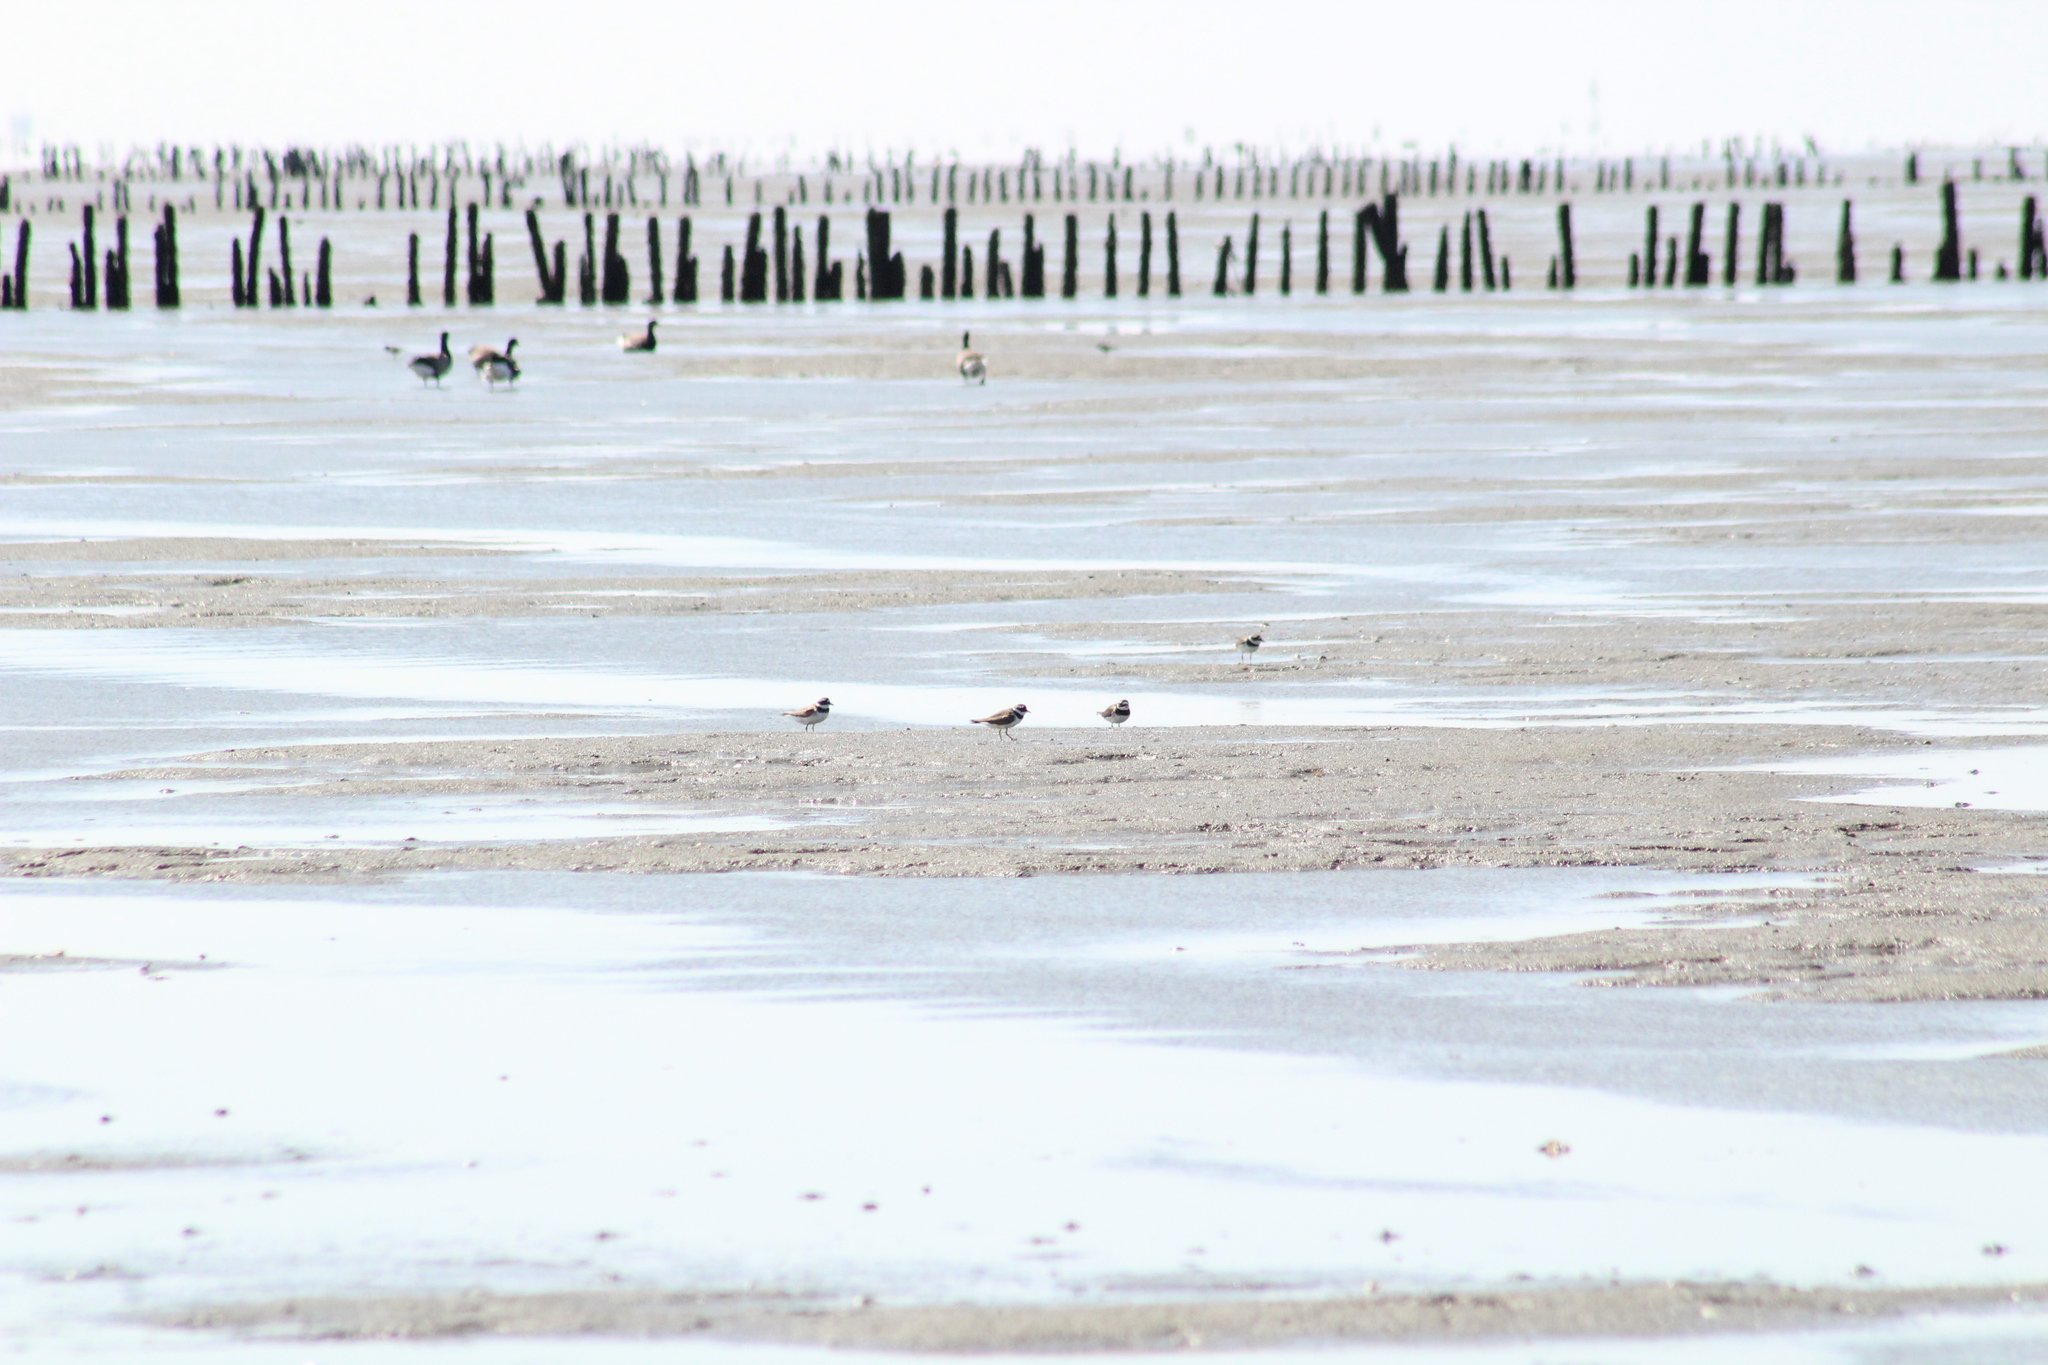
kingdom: Animalia
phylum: Chordata
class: Aves
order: Charadriiformes
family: Charadriidae
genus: Charadrius
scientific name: Charadrius hiaticula
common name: Common ringed plover
